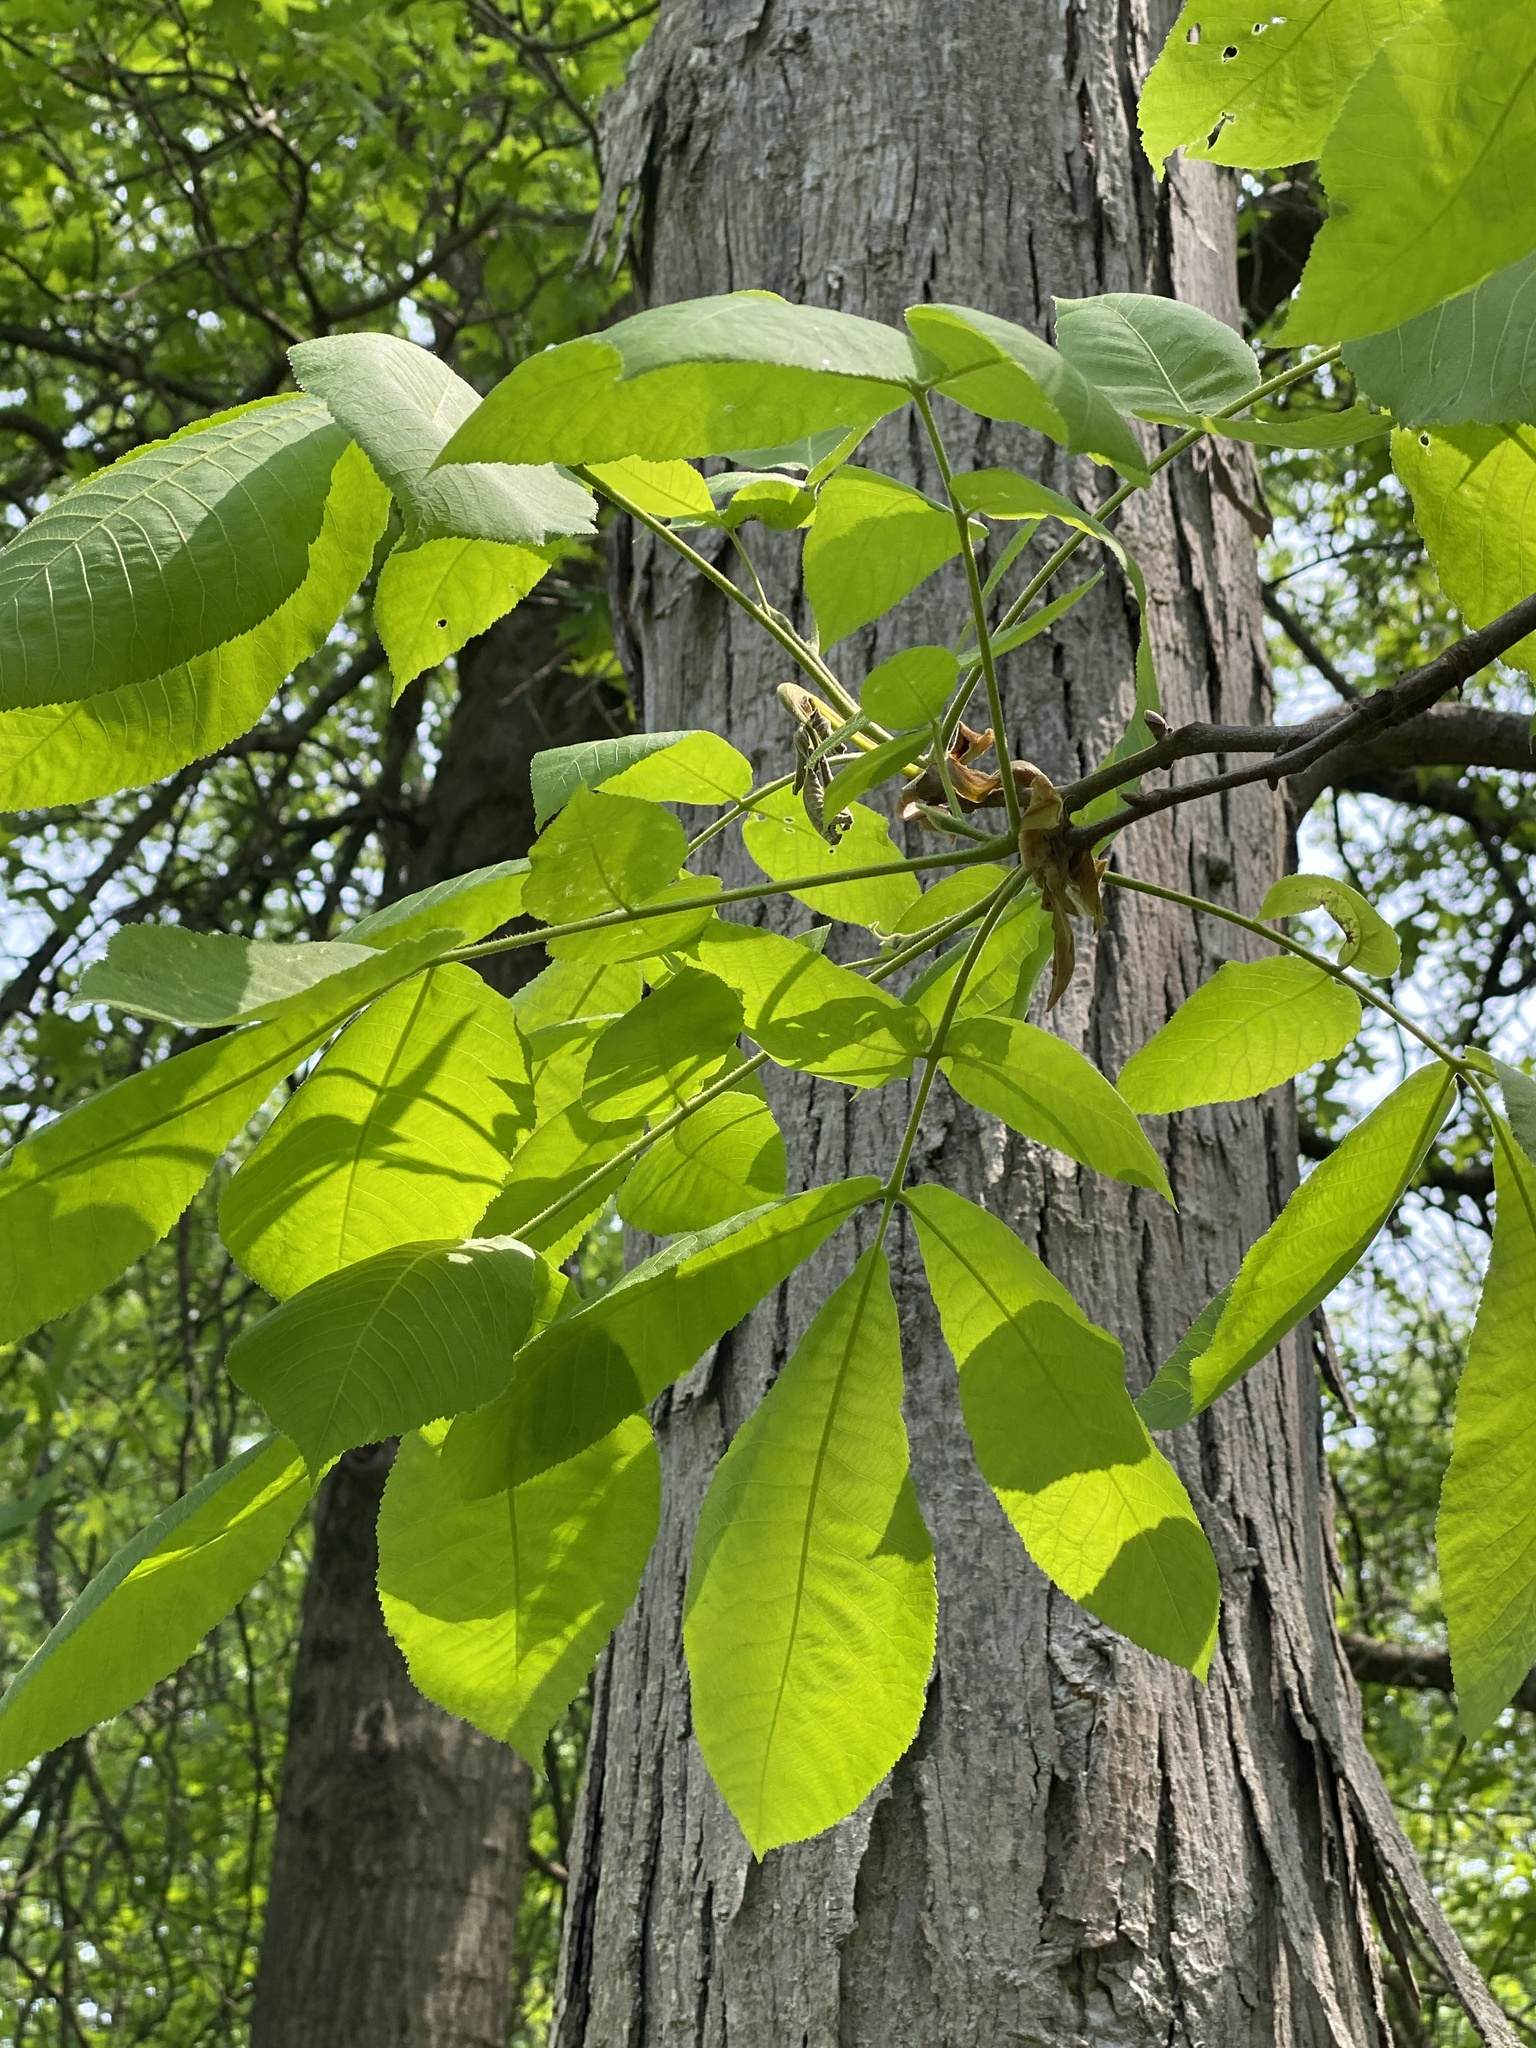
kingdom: Plantae
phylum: Tracheophyta
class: Magnoliopsida
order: Fagales
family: Juglandaceae
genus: Carya
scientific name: Carya ovata
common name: Shagbark hickory
